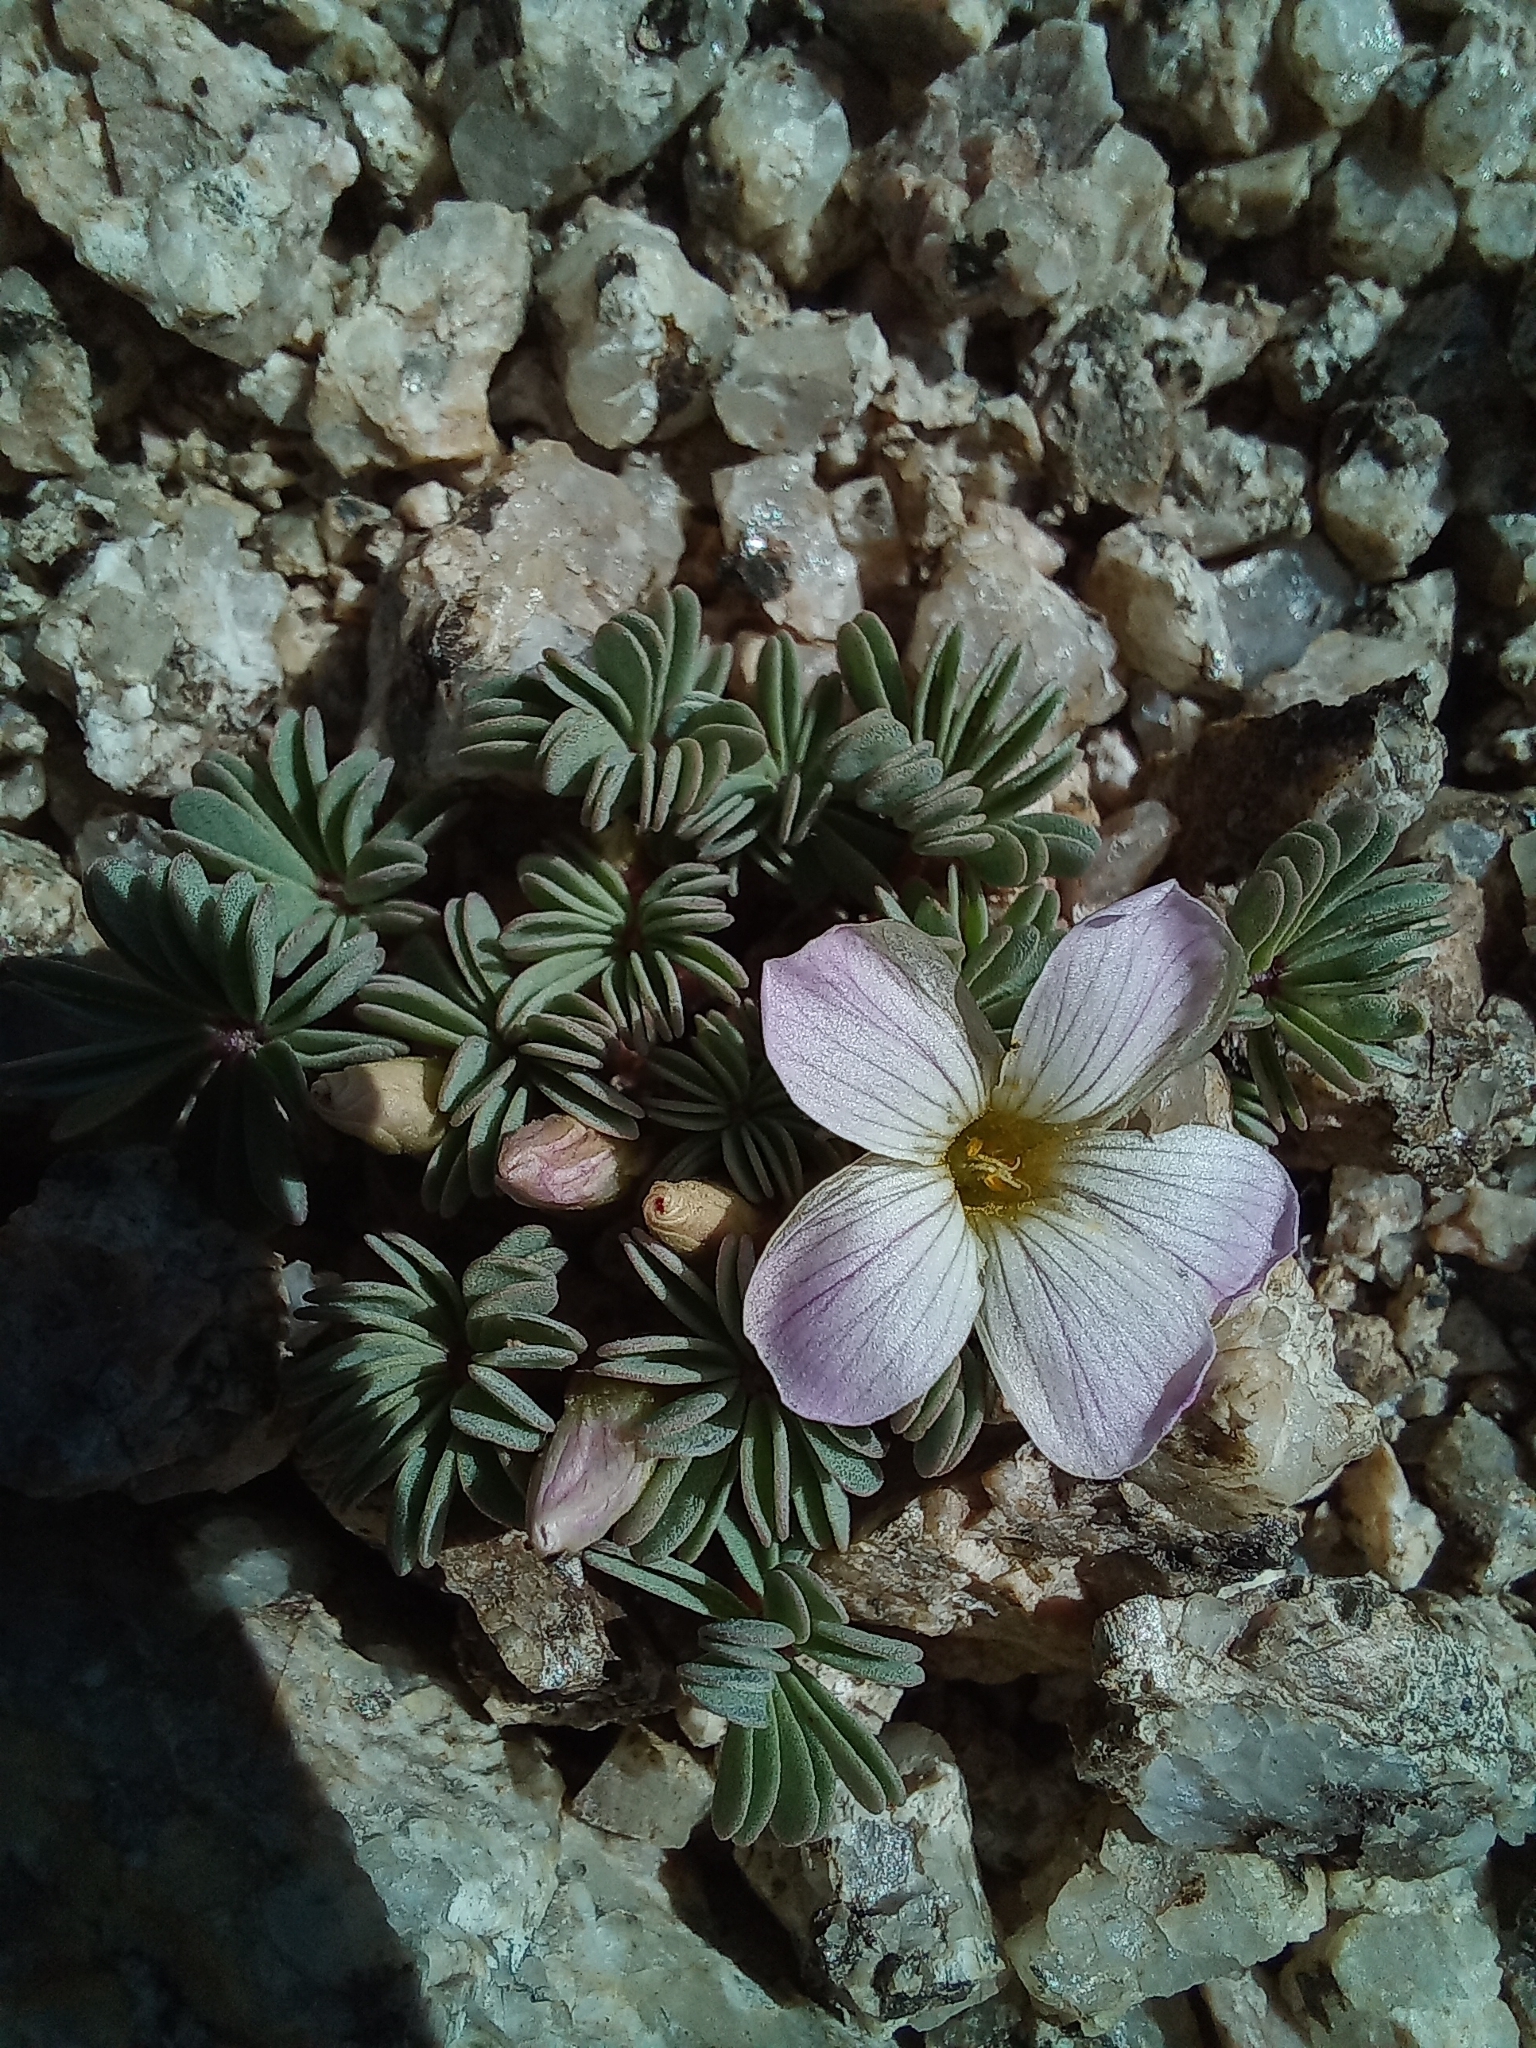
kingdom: Plantae
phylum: Tracheophyta
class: Magnoliopsida
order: Oxalidales
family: Oxalidaceae
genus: Oxalis
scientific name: Oxalis adenophylla
